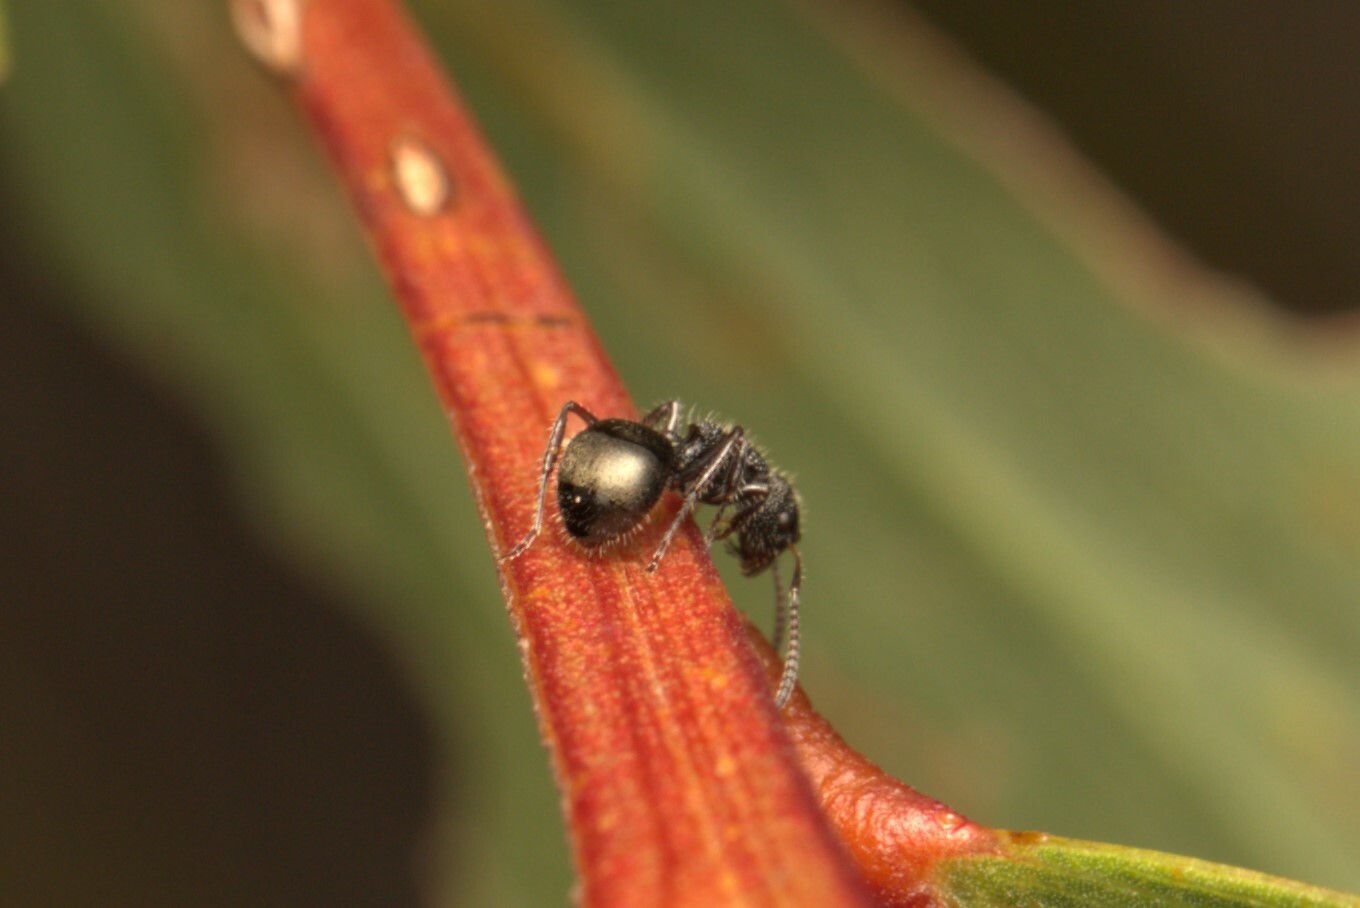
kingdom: Animalia
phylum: Arthropoda
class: Insecta
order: Hymenoptera
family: Formicidae
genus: Dolichoderus
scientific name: Dolichoderus scrobiculatus
